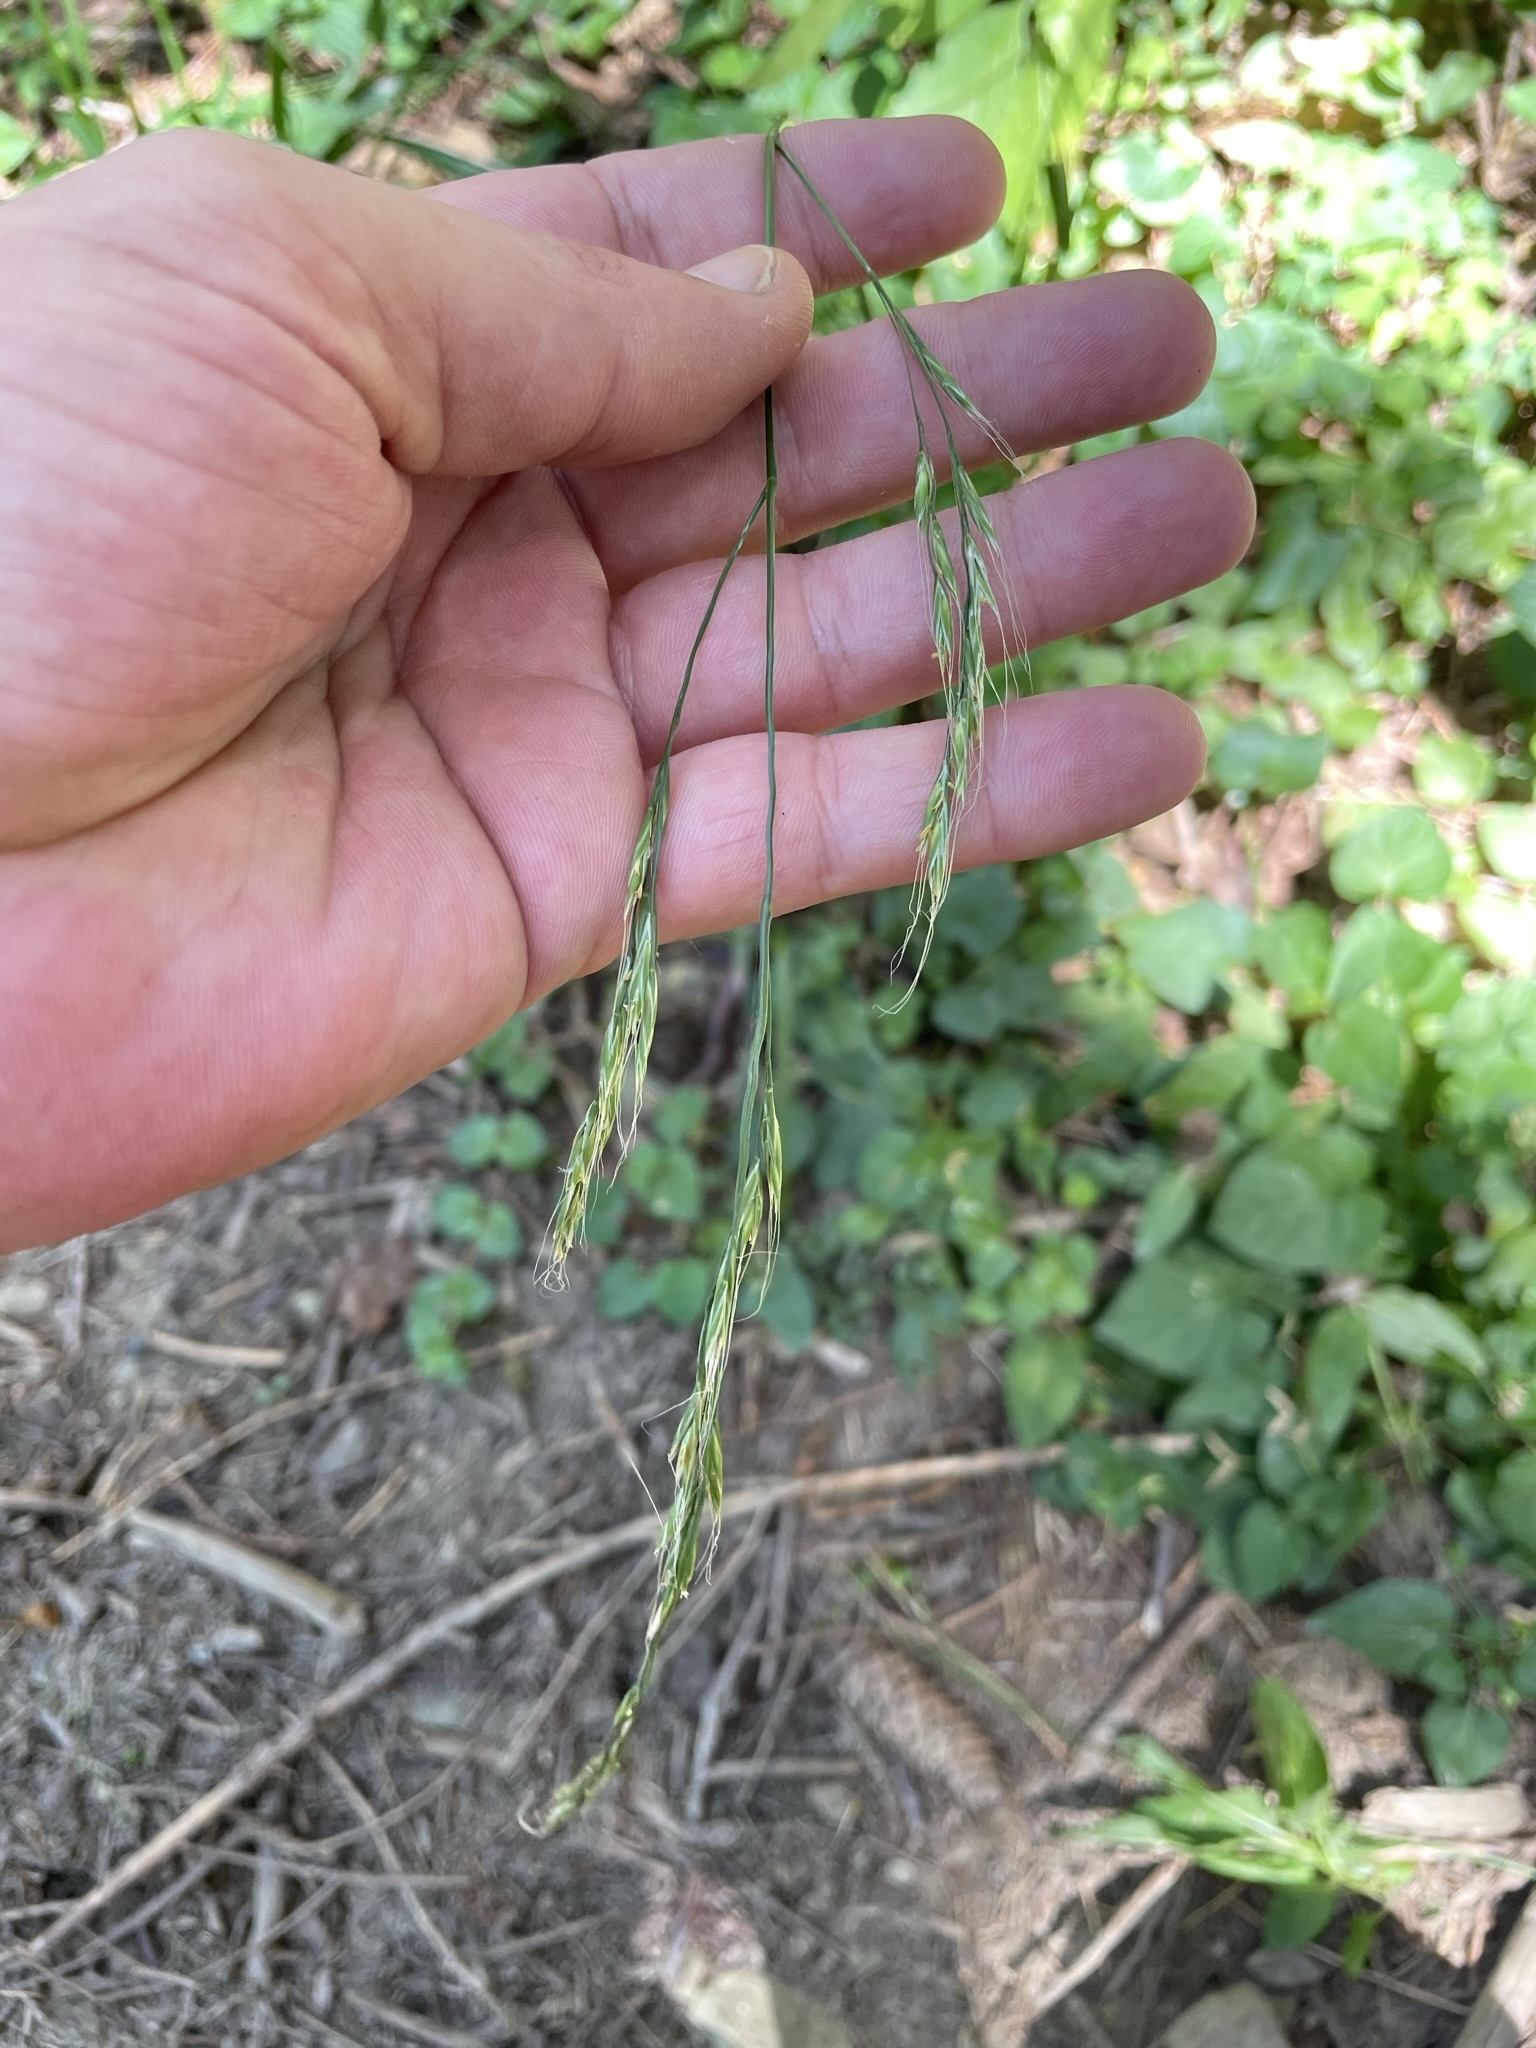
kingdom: Plantae
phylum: Tracheophyta
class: Liliopsida
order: Poales
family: Poaceae
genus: Lolium
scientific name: Lolium giganteum
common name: Giant fescue
